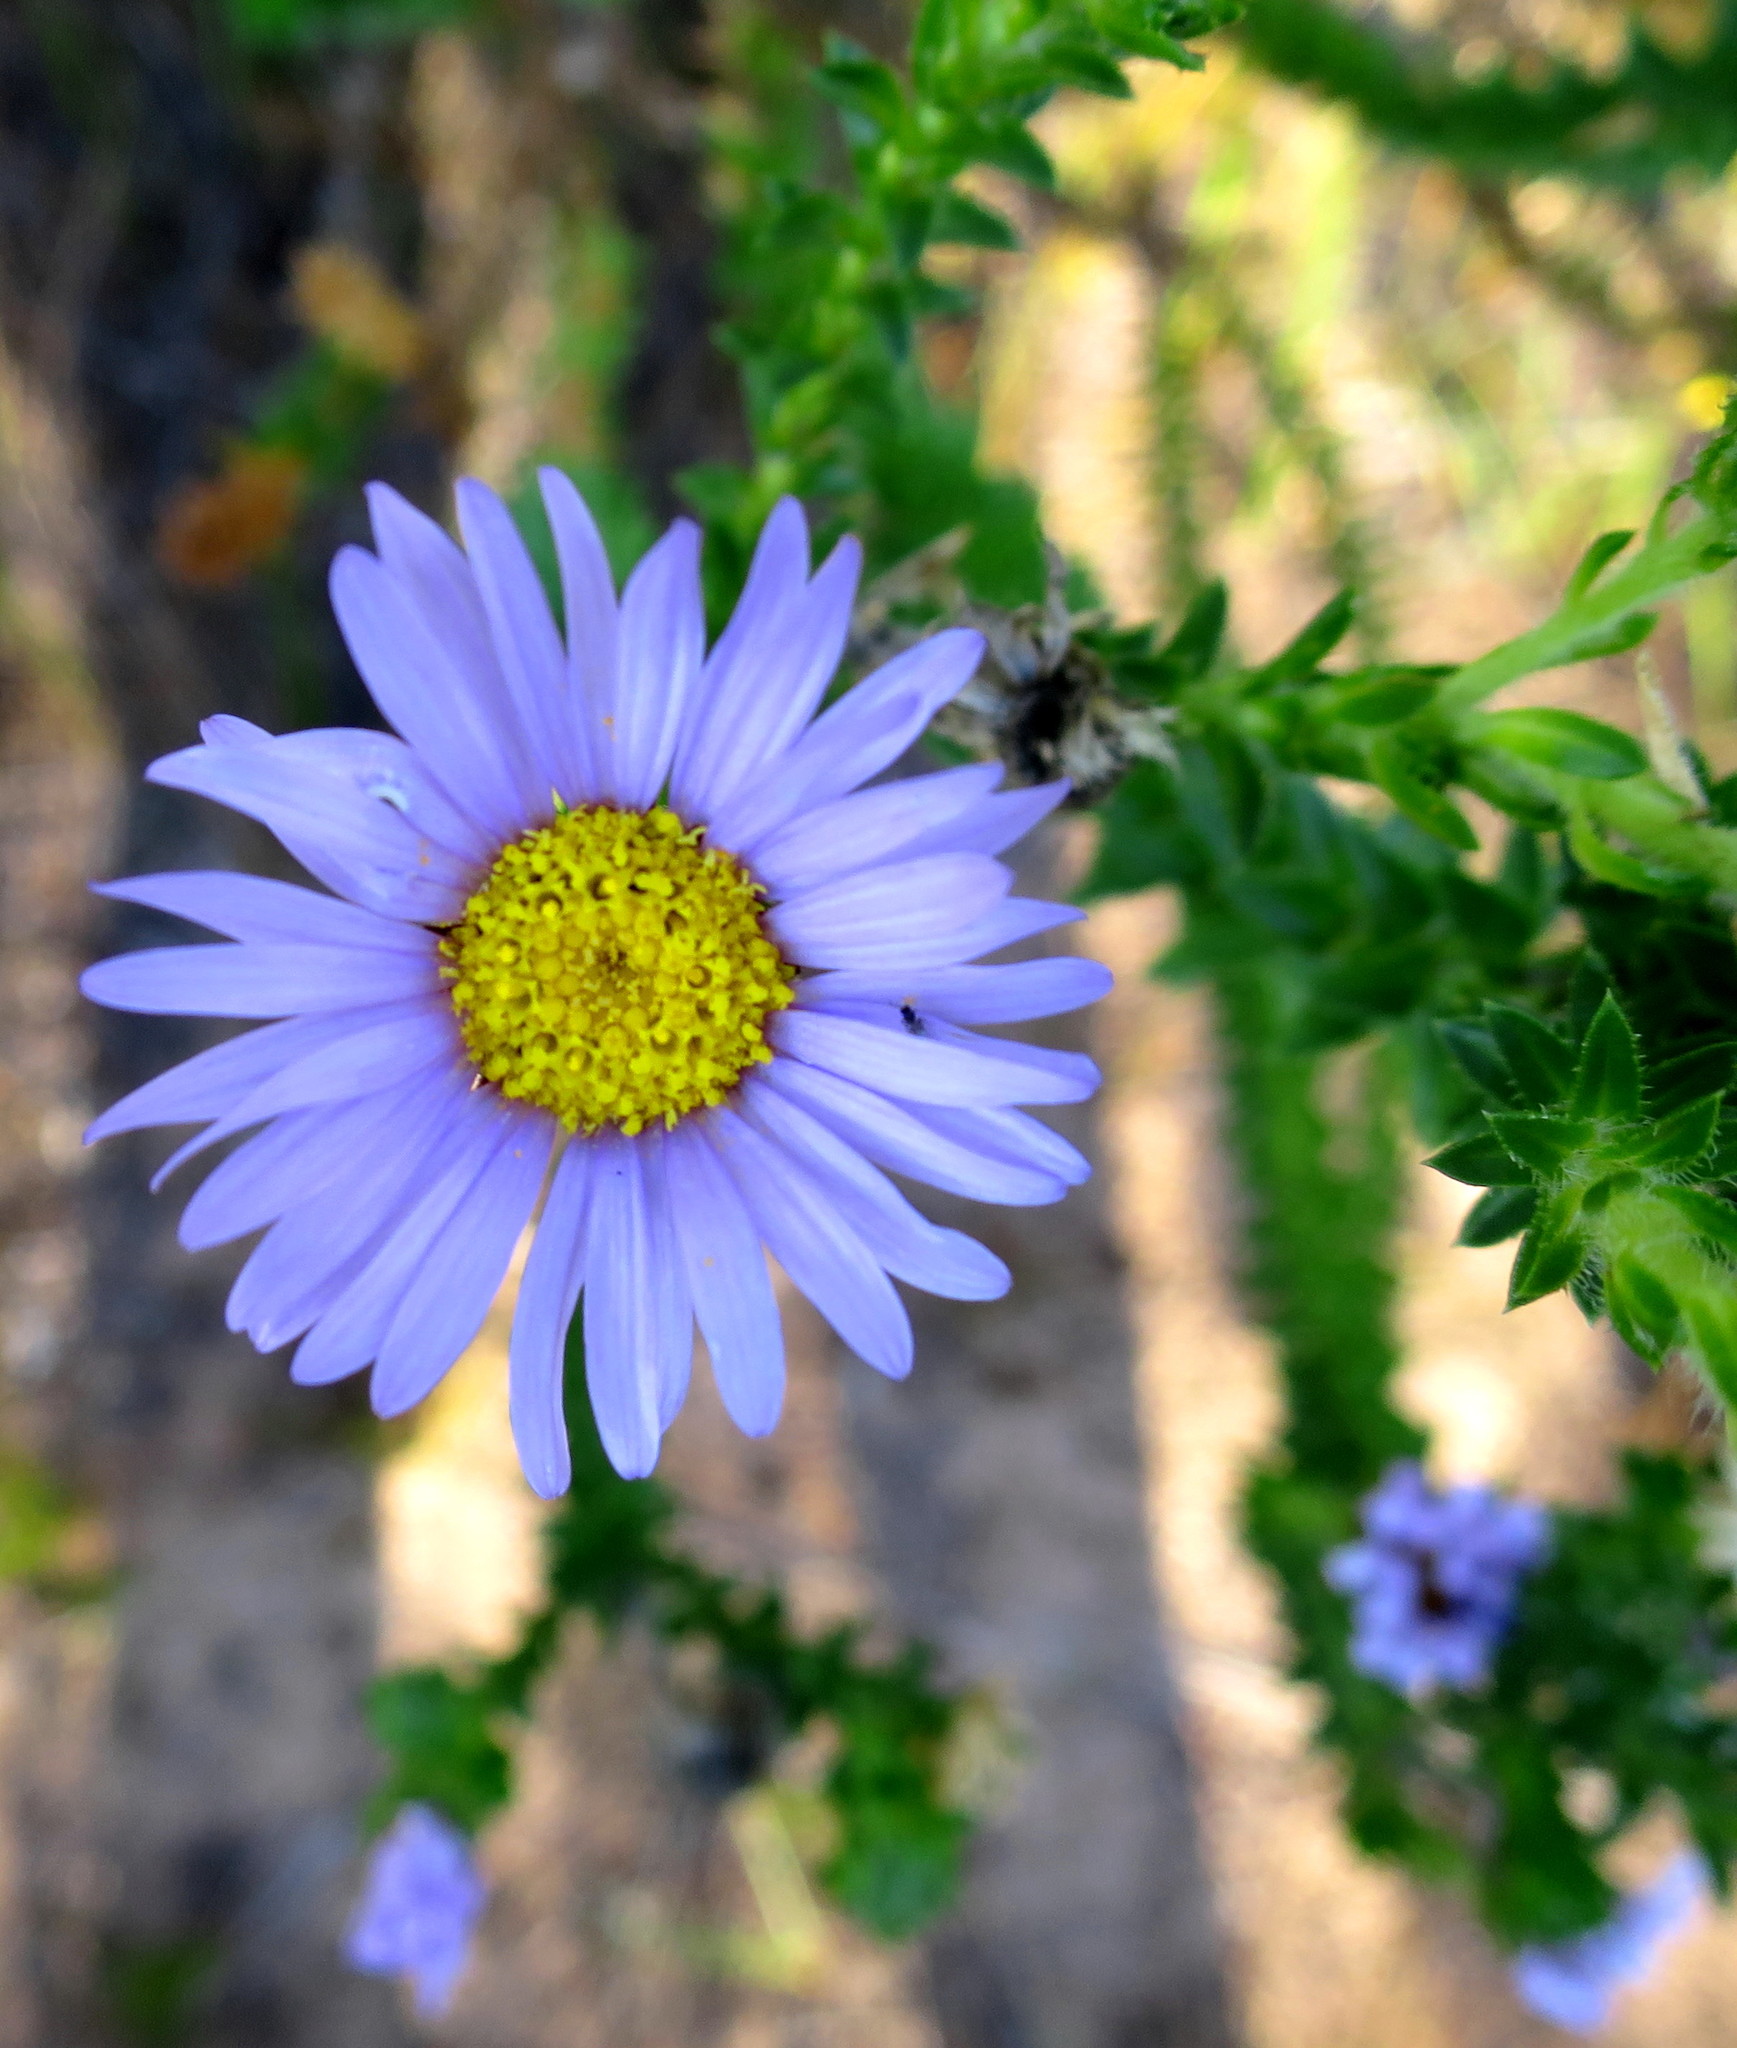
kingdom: Plantae
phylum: Tracheophyta
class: Magnoliopsida
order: Asterales
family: Asteraceae
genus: Felicia
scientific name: Felicia echinata
